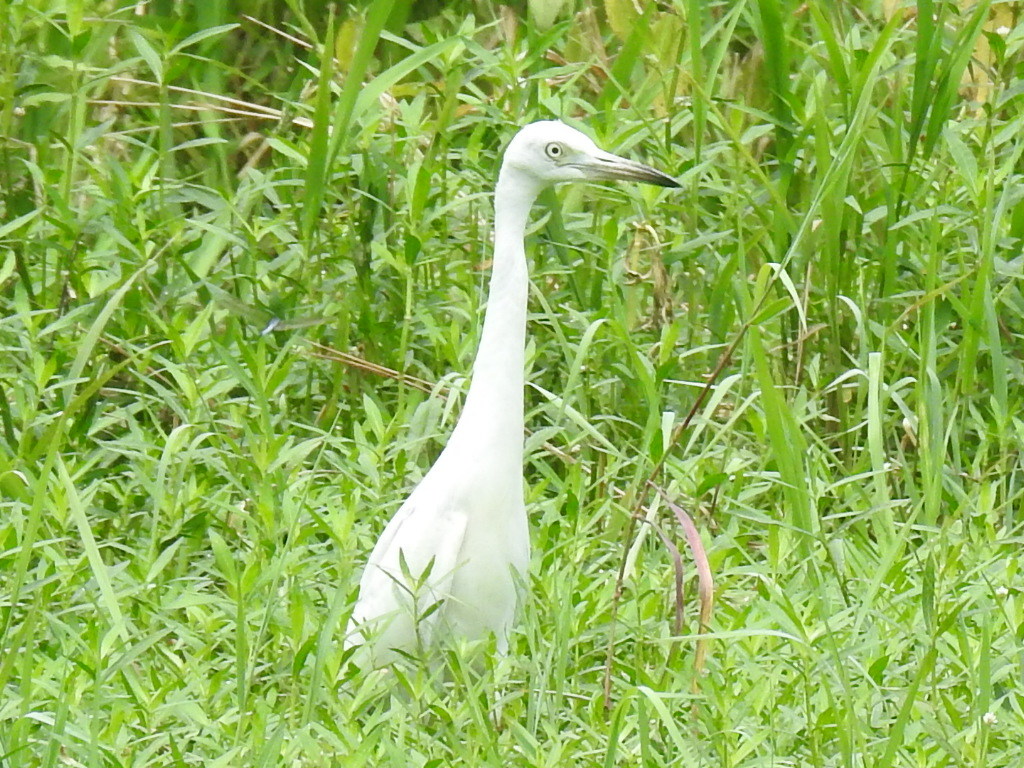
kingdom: Animalia
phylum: Chordata
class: Aves
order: Pelecaniformes
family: Ardeidae
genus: Egretta
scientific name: Egretta caerulea
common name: Little blue heron
